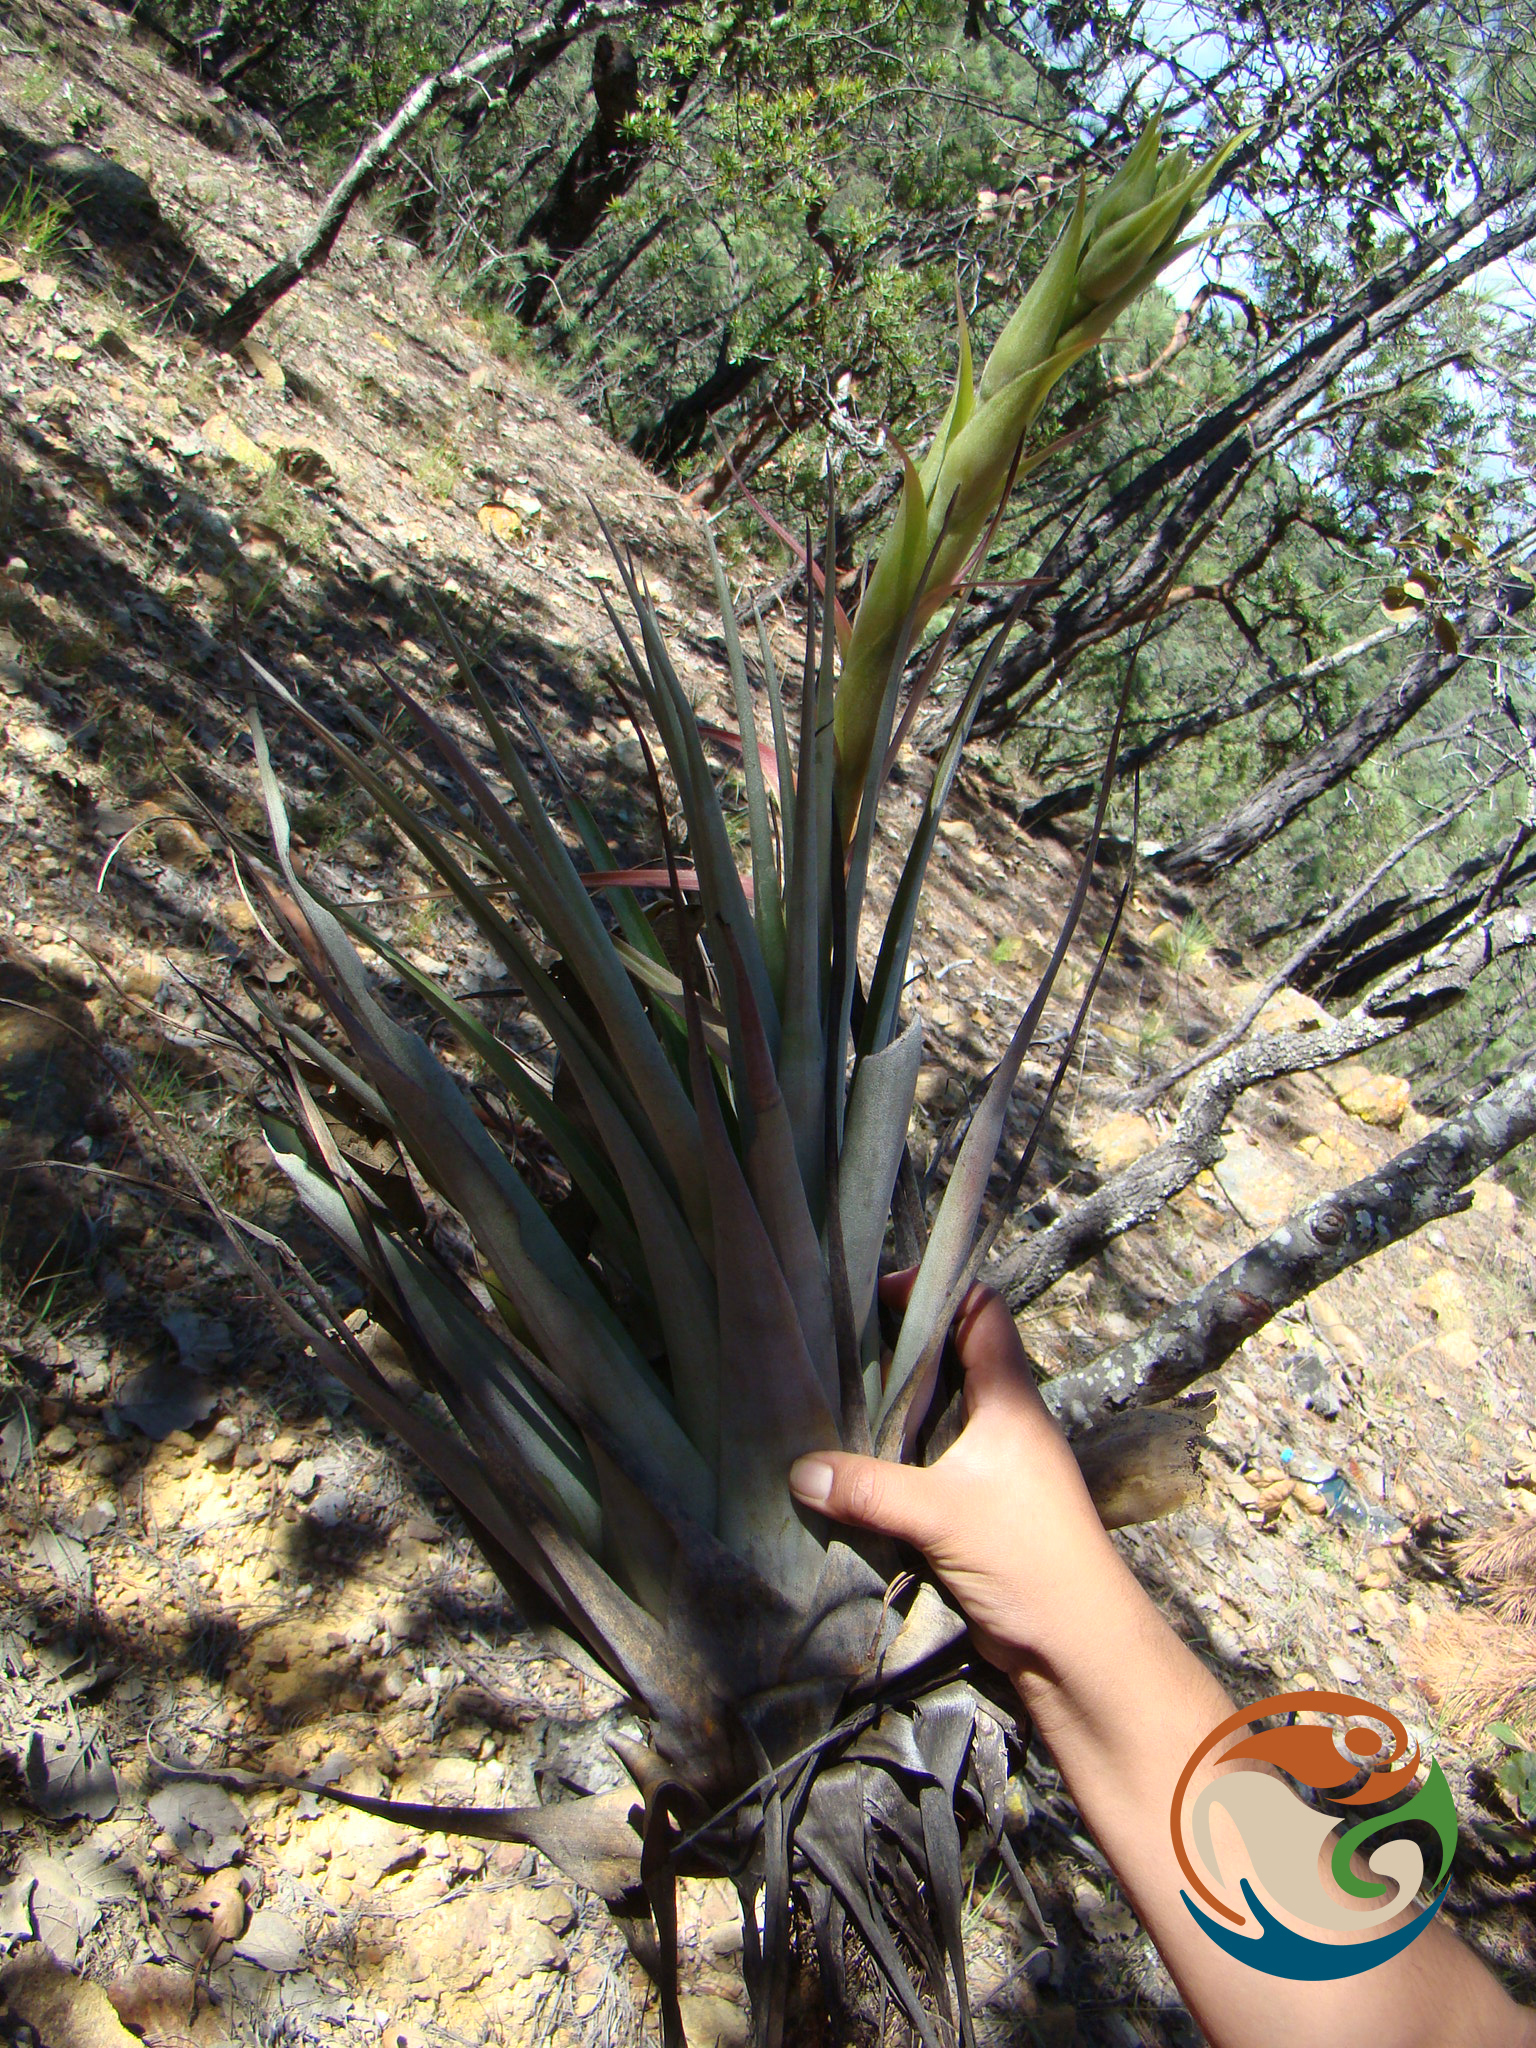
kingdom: Plantae
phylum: Tracheophyta
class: Liliopsida
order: Poales
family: Bromeliaceae
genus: Tillandsia
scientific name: Tillandsia prodigiosa
